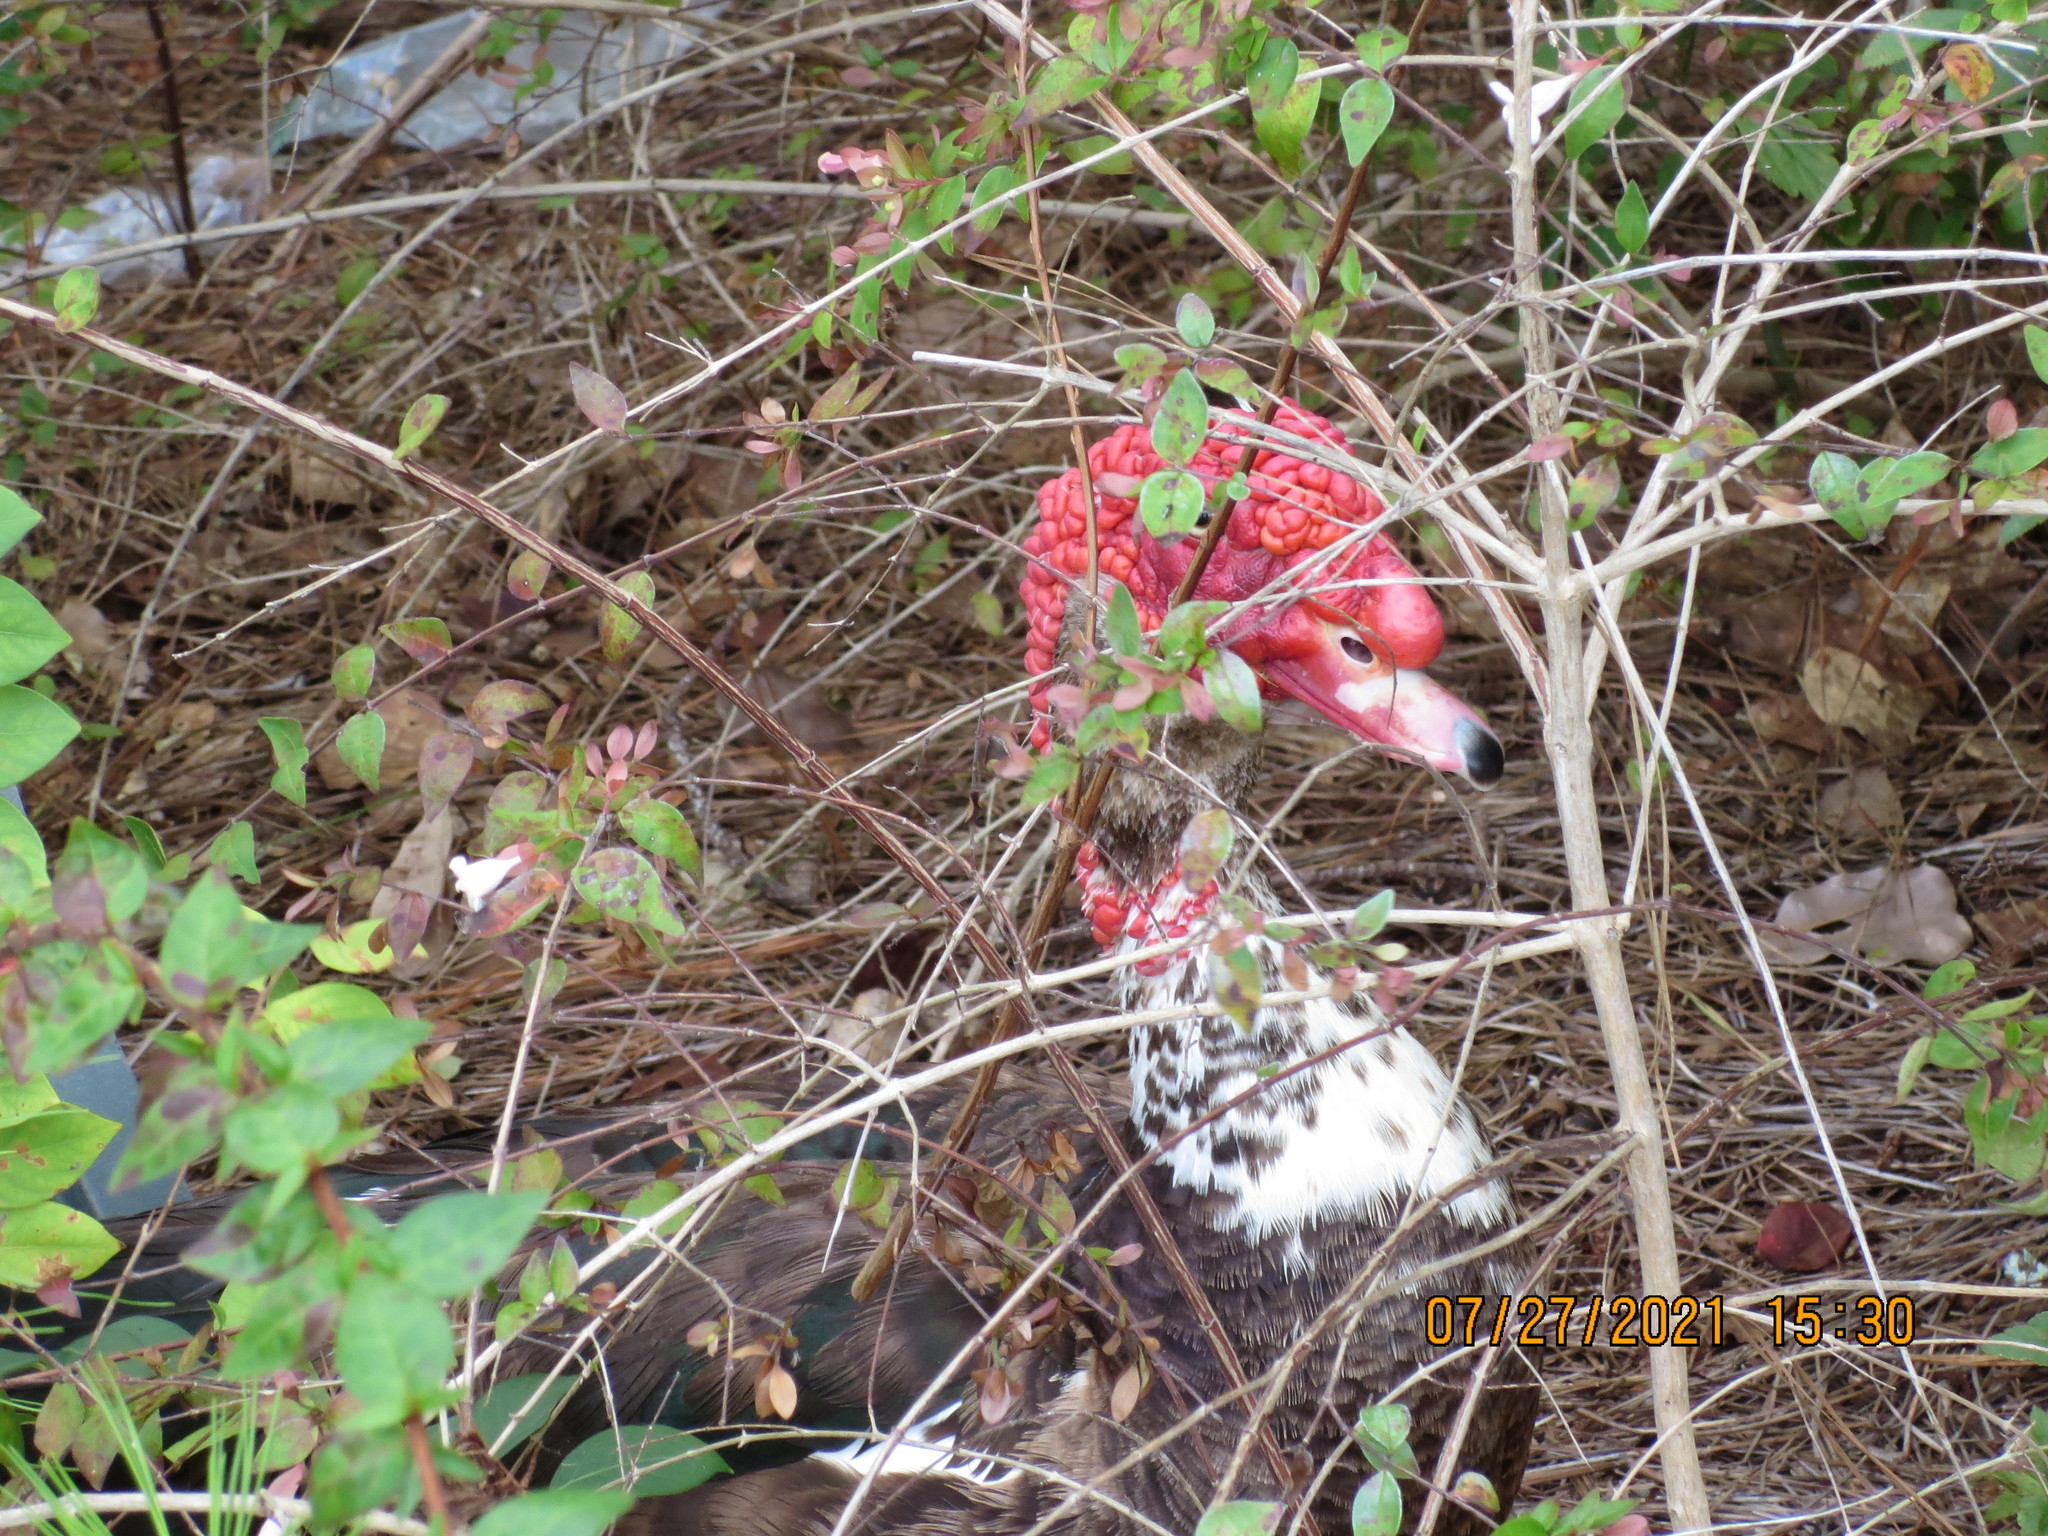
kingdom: Animalia
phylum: Chordata
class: Aves
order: Anseriformes
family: Anatidae
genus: Cairina
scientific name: Cairina moschata
